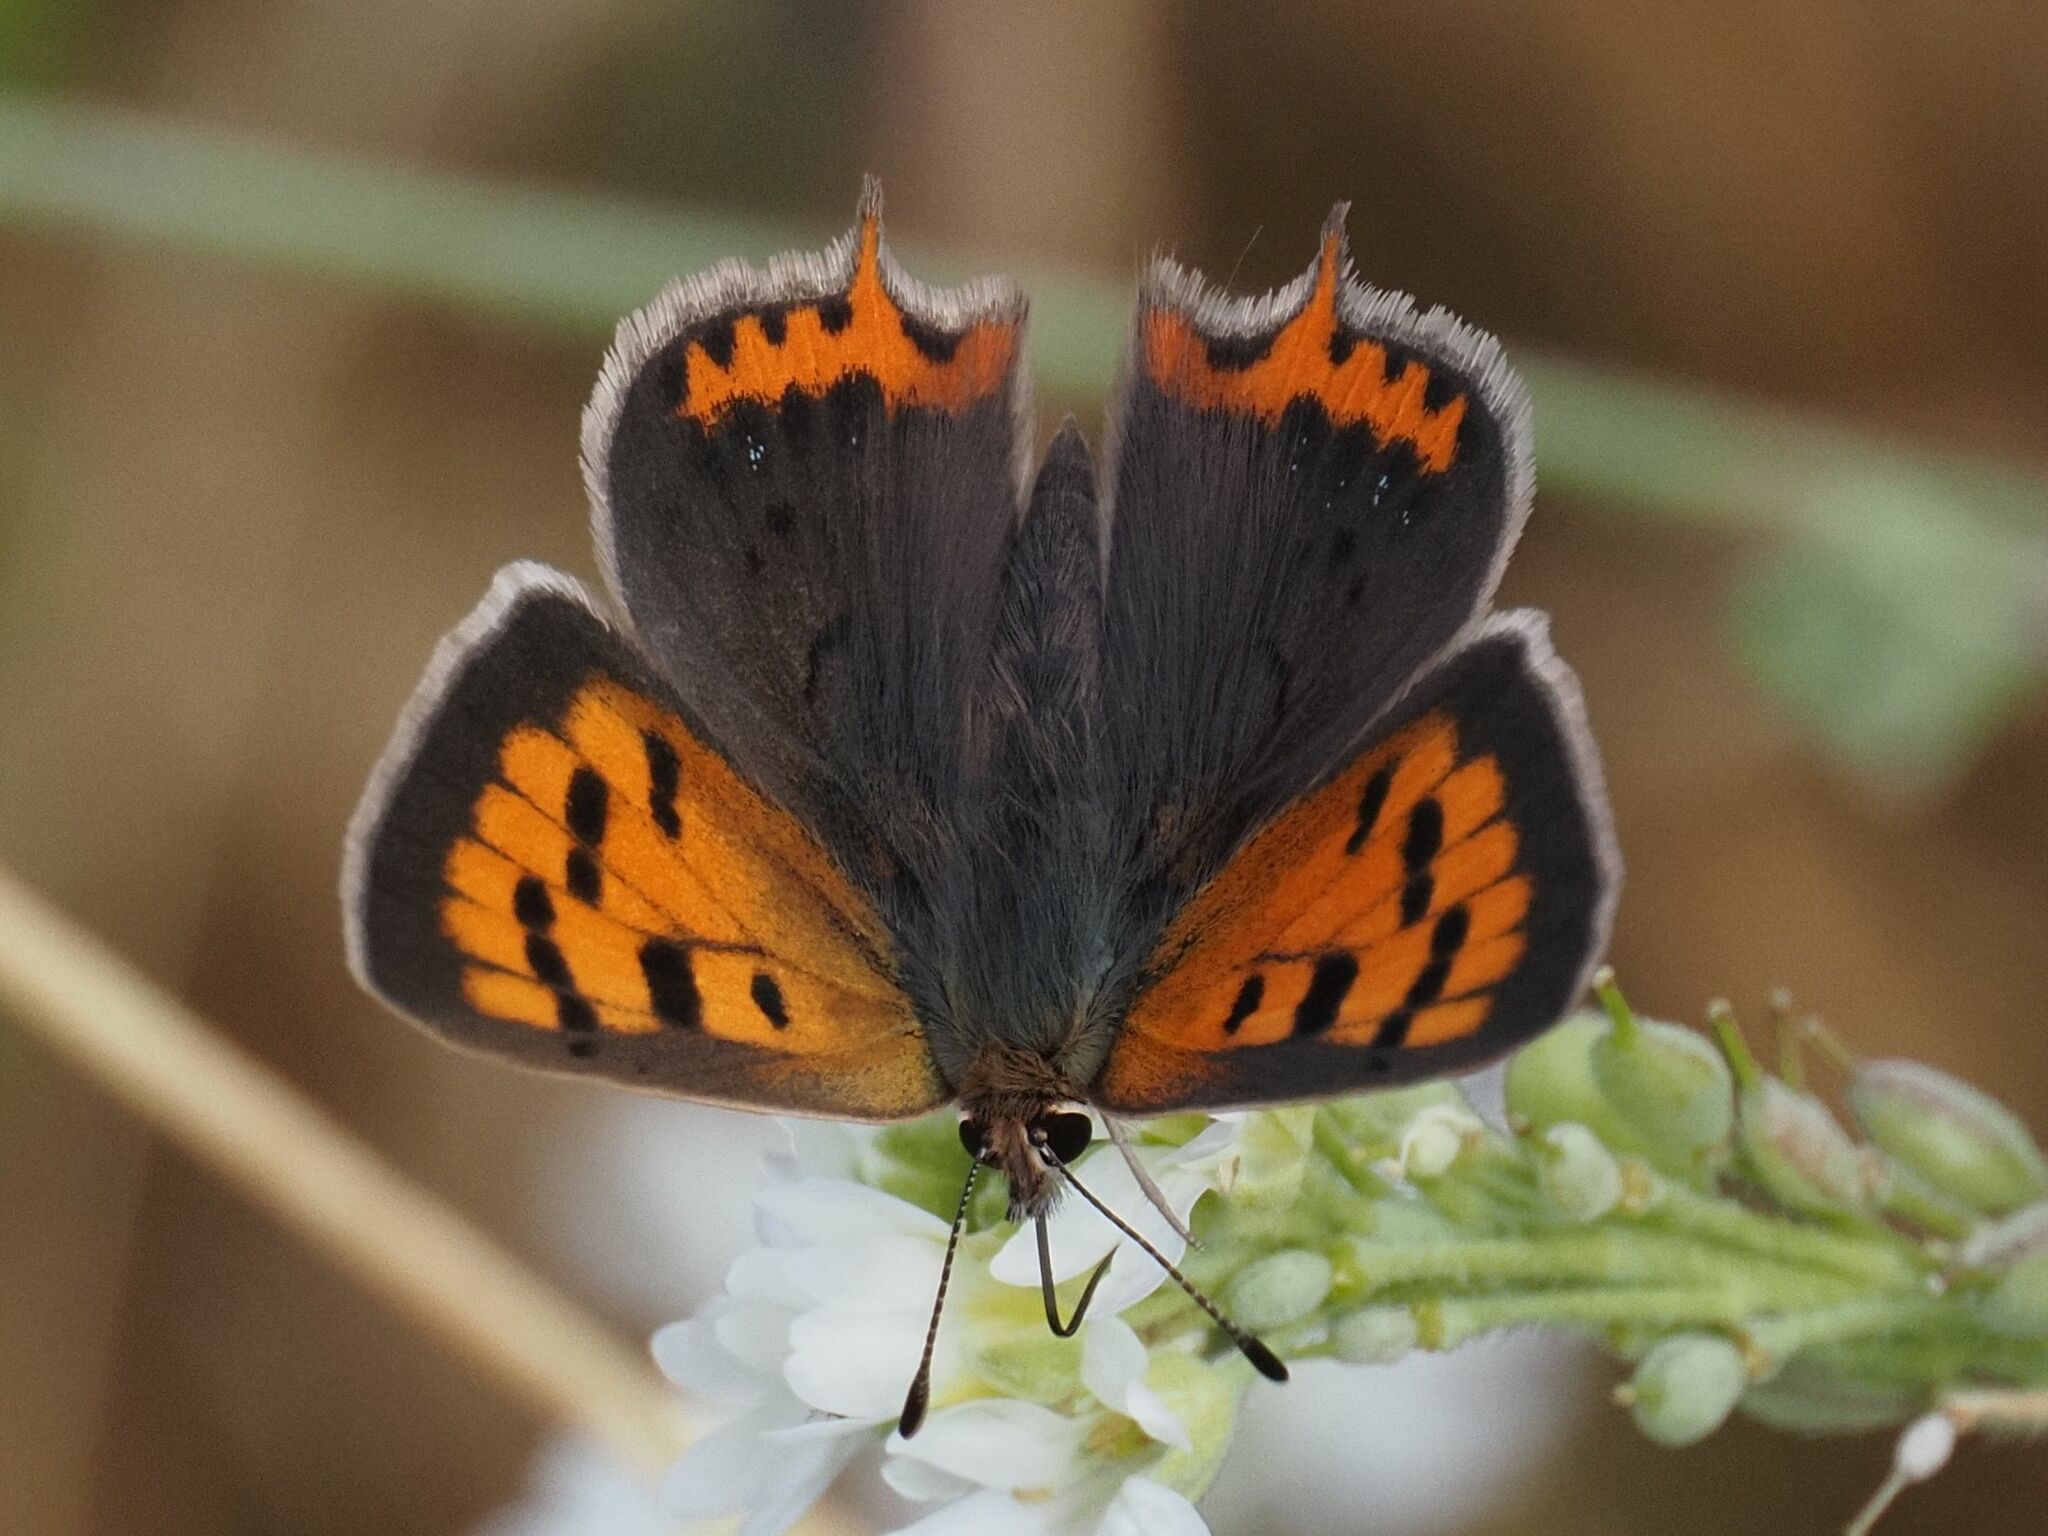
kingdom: Animalia
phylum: Arthropoda
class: Insecta
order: Lepidoptera
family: Lycaenidae
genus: Lycaena
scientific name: Lycaena phlaeas
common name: Small copper
